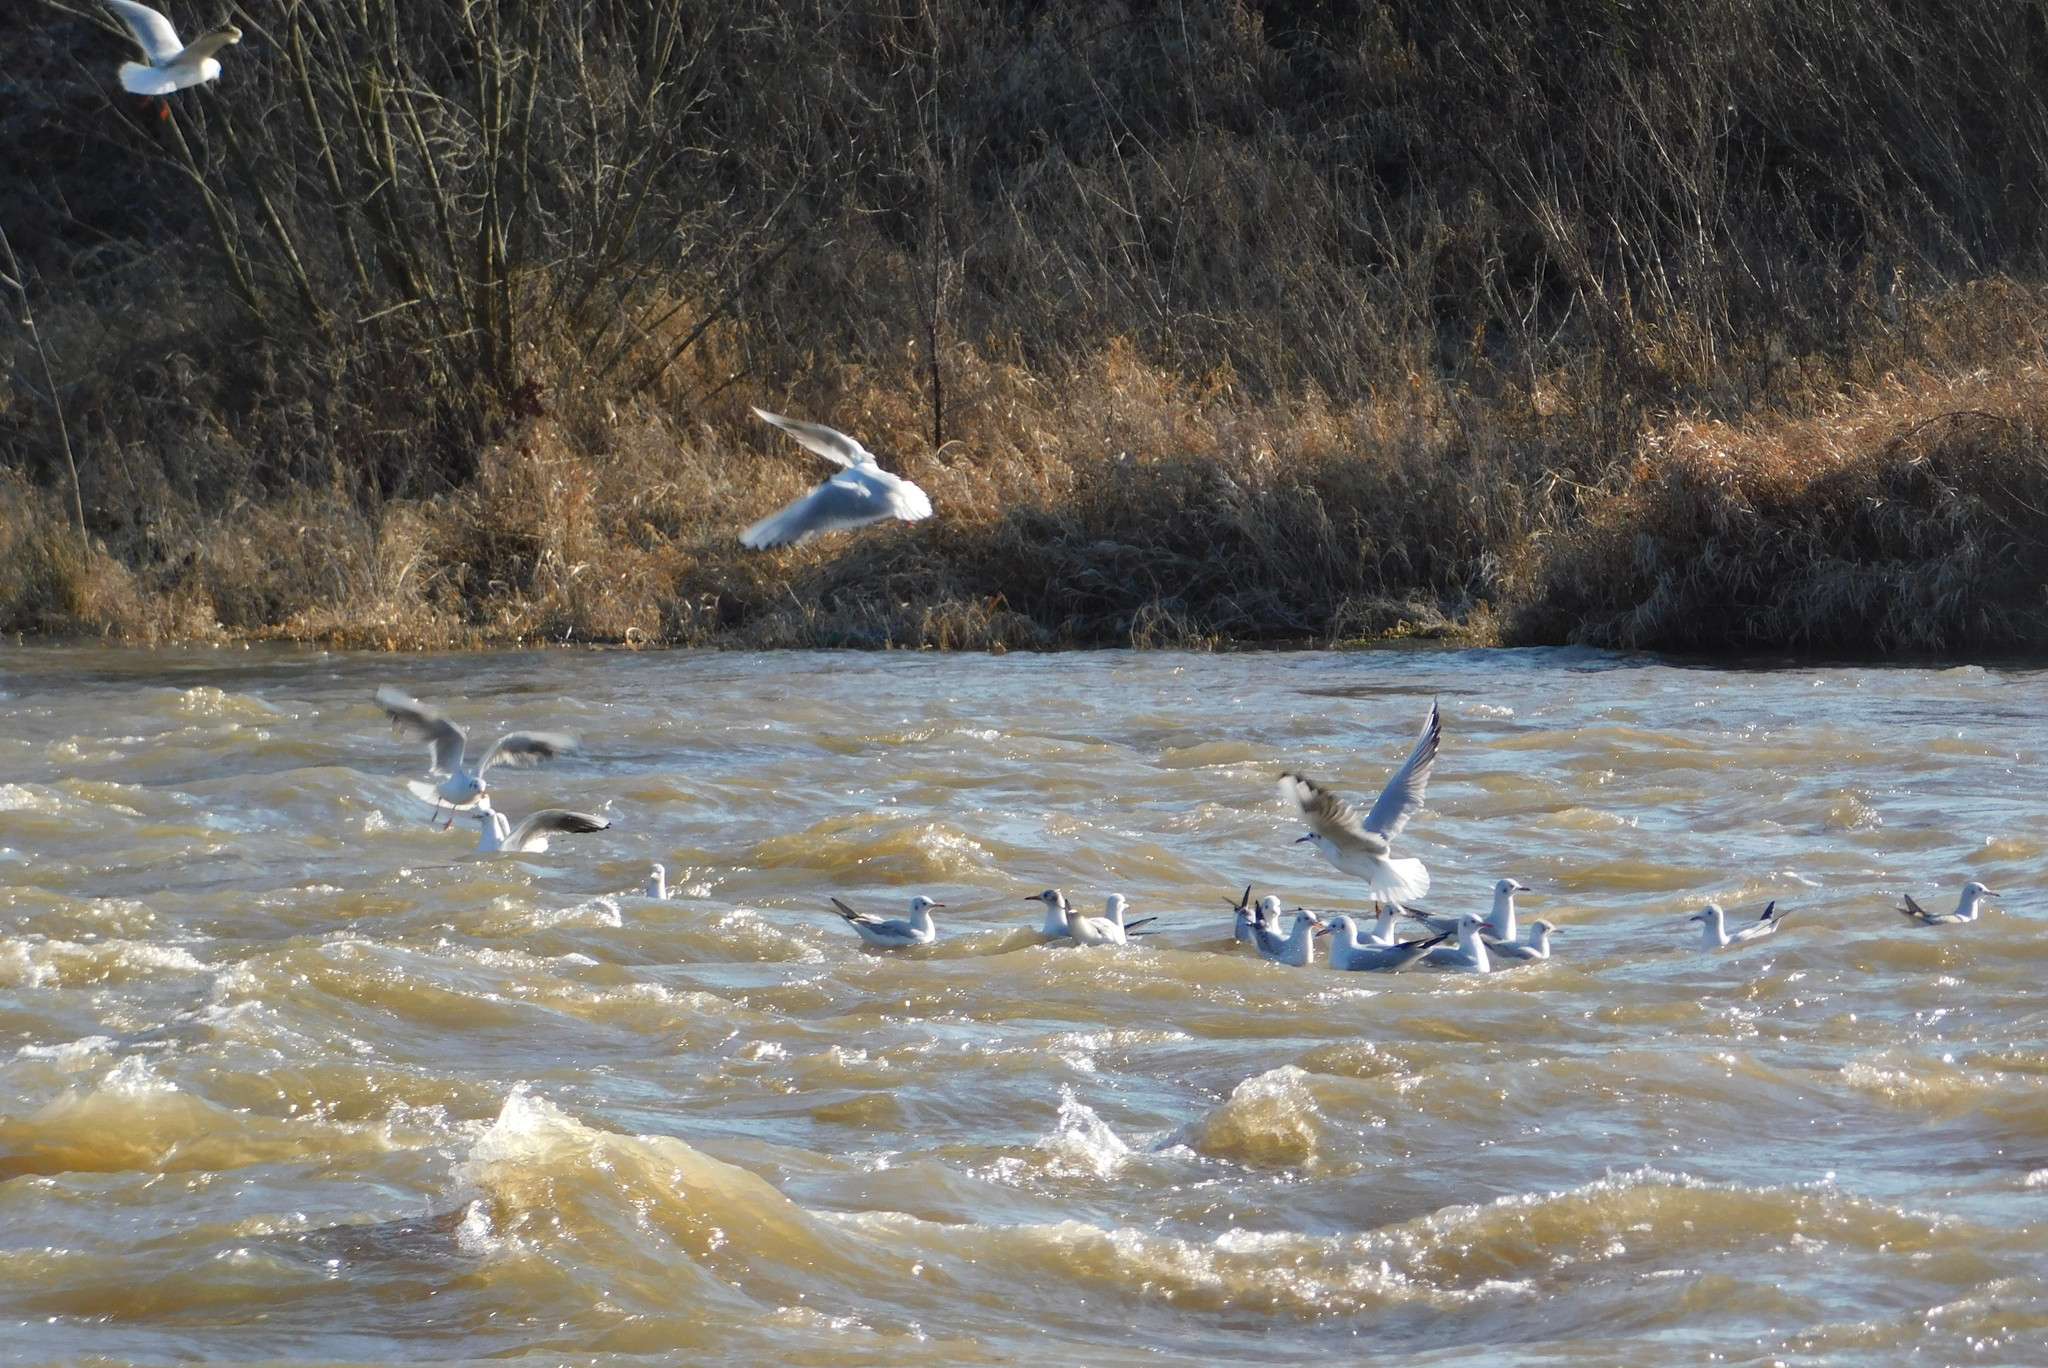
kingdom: Animalia
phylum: Chordata
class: Aves
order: Charadriiformes
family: Laridae
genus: Chroicocephalus
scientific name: Chroicocephalus ridibundus
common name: Black-headed gull
